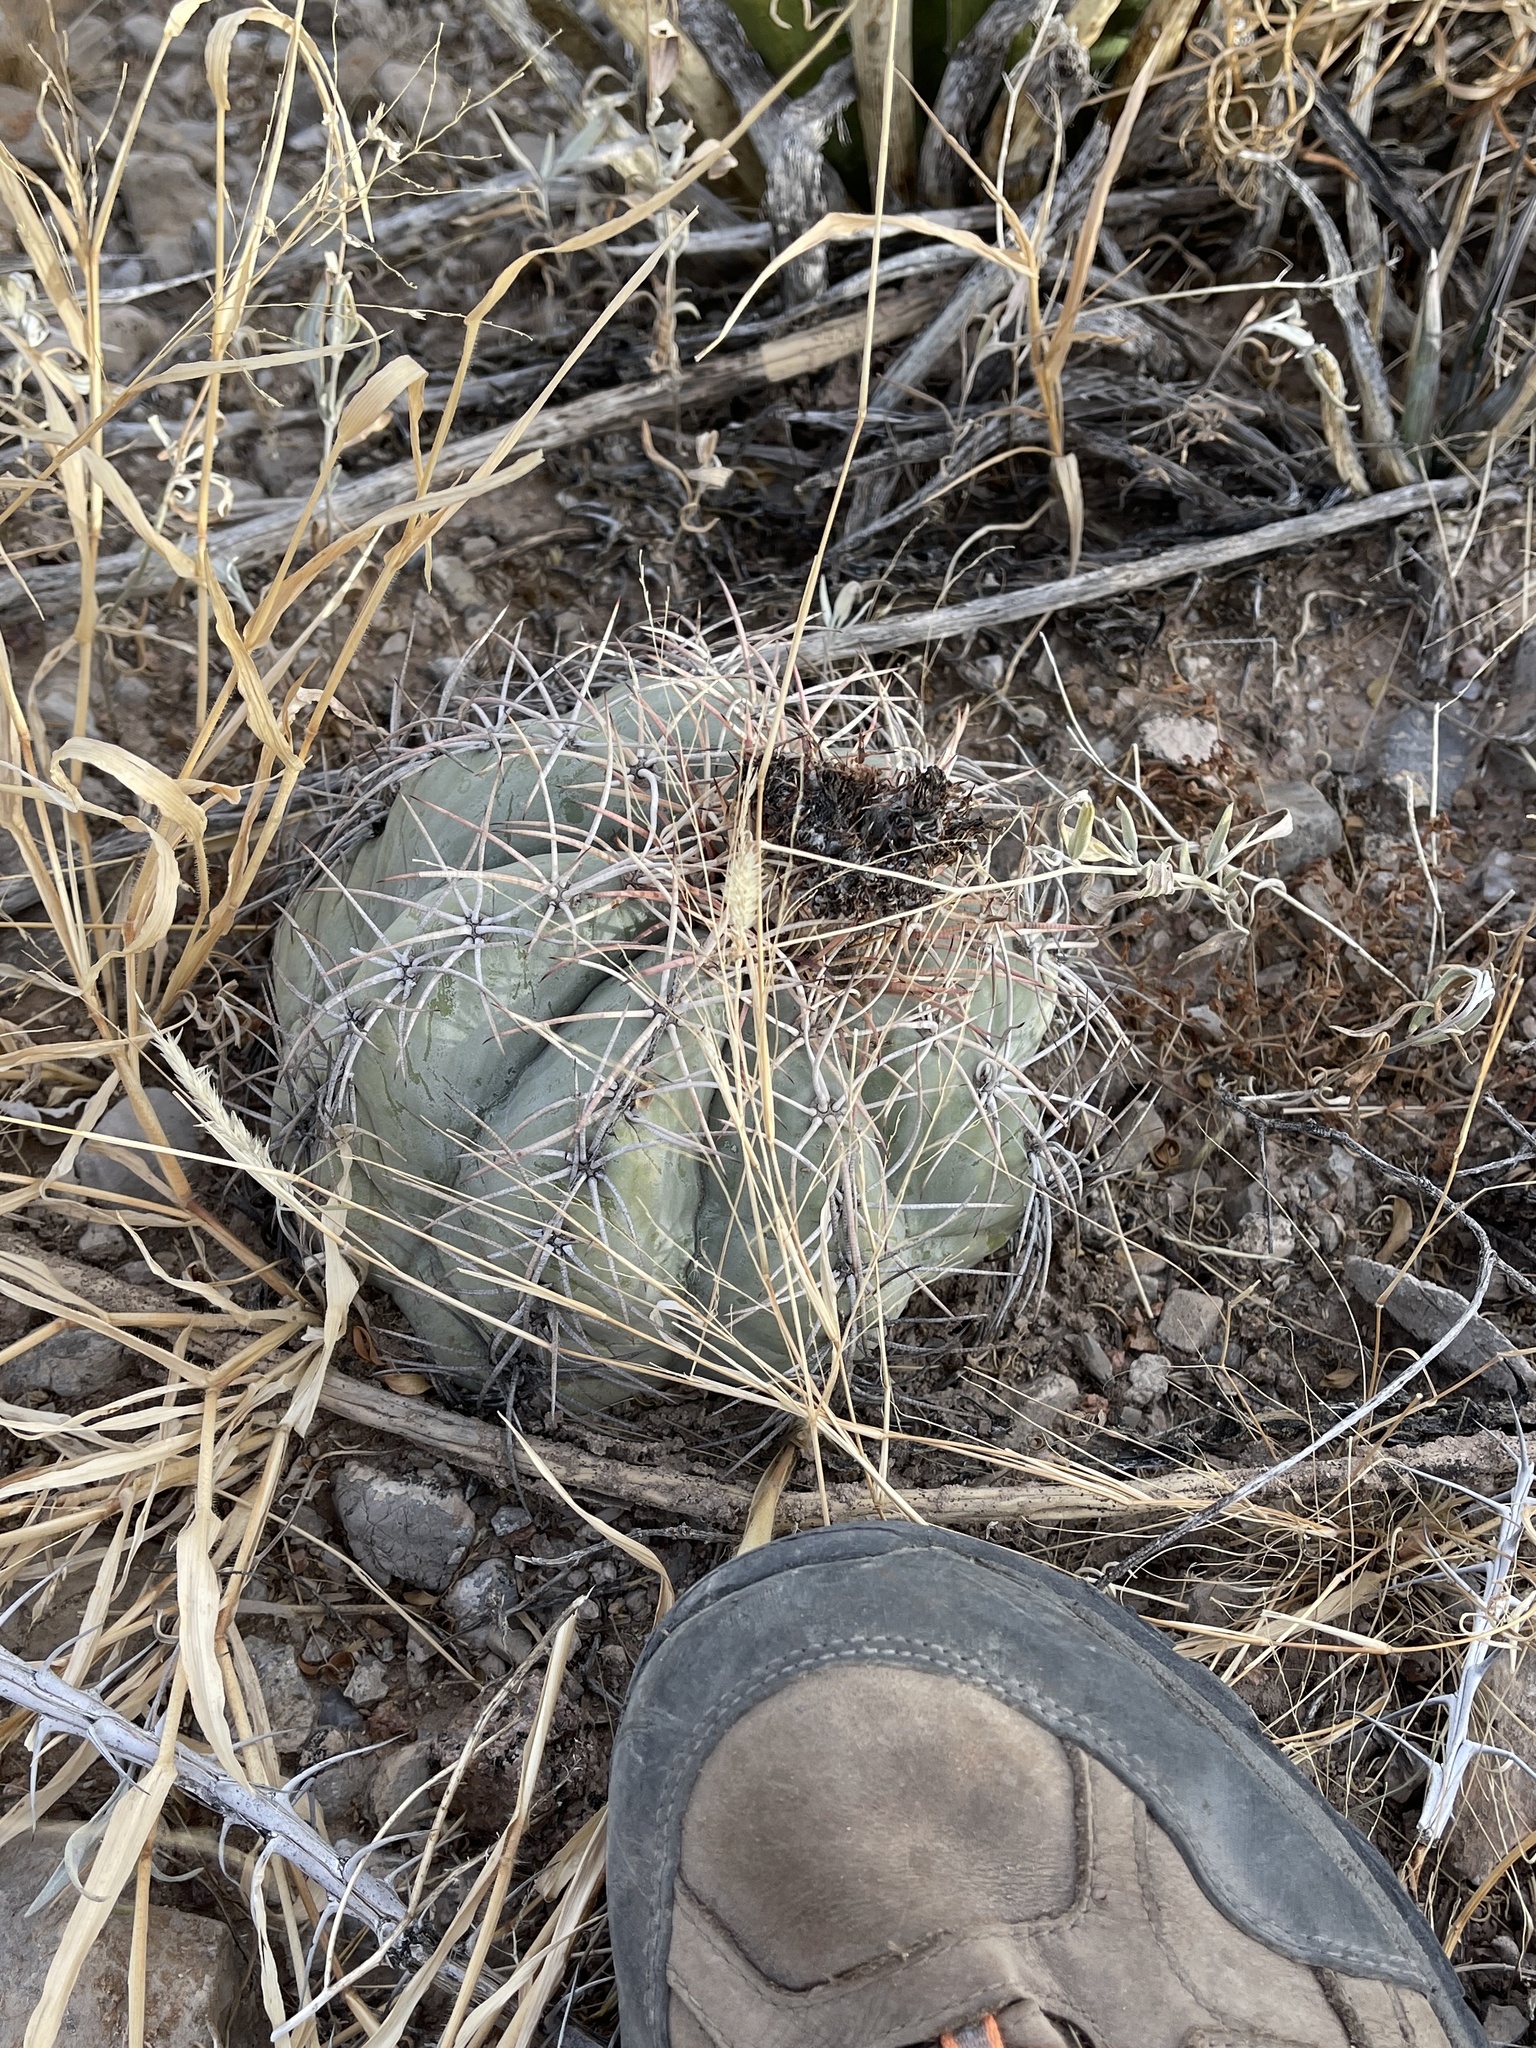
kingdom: Plantae
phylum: Tracheophyta
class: Magnoliopsida
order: Caryophyllales
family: Cactaceae
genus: Echinocactus
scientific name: Echinocactus horizonthalonius
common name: Devilshead
